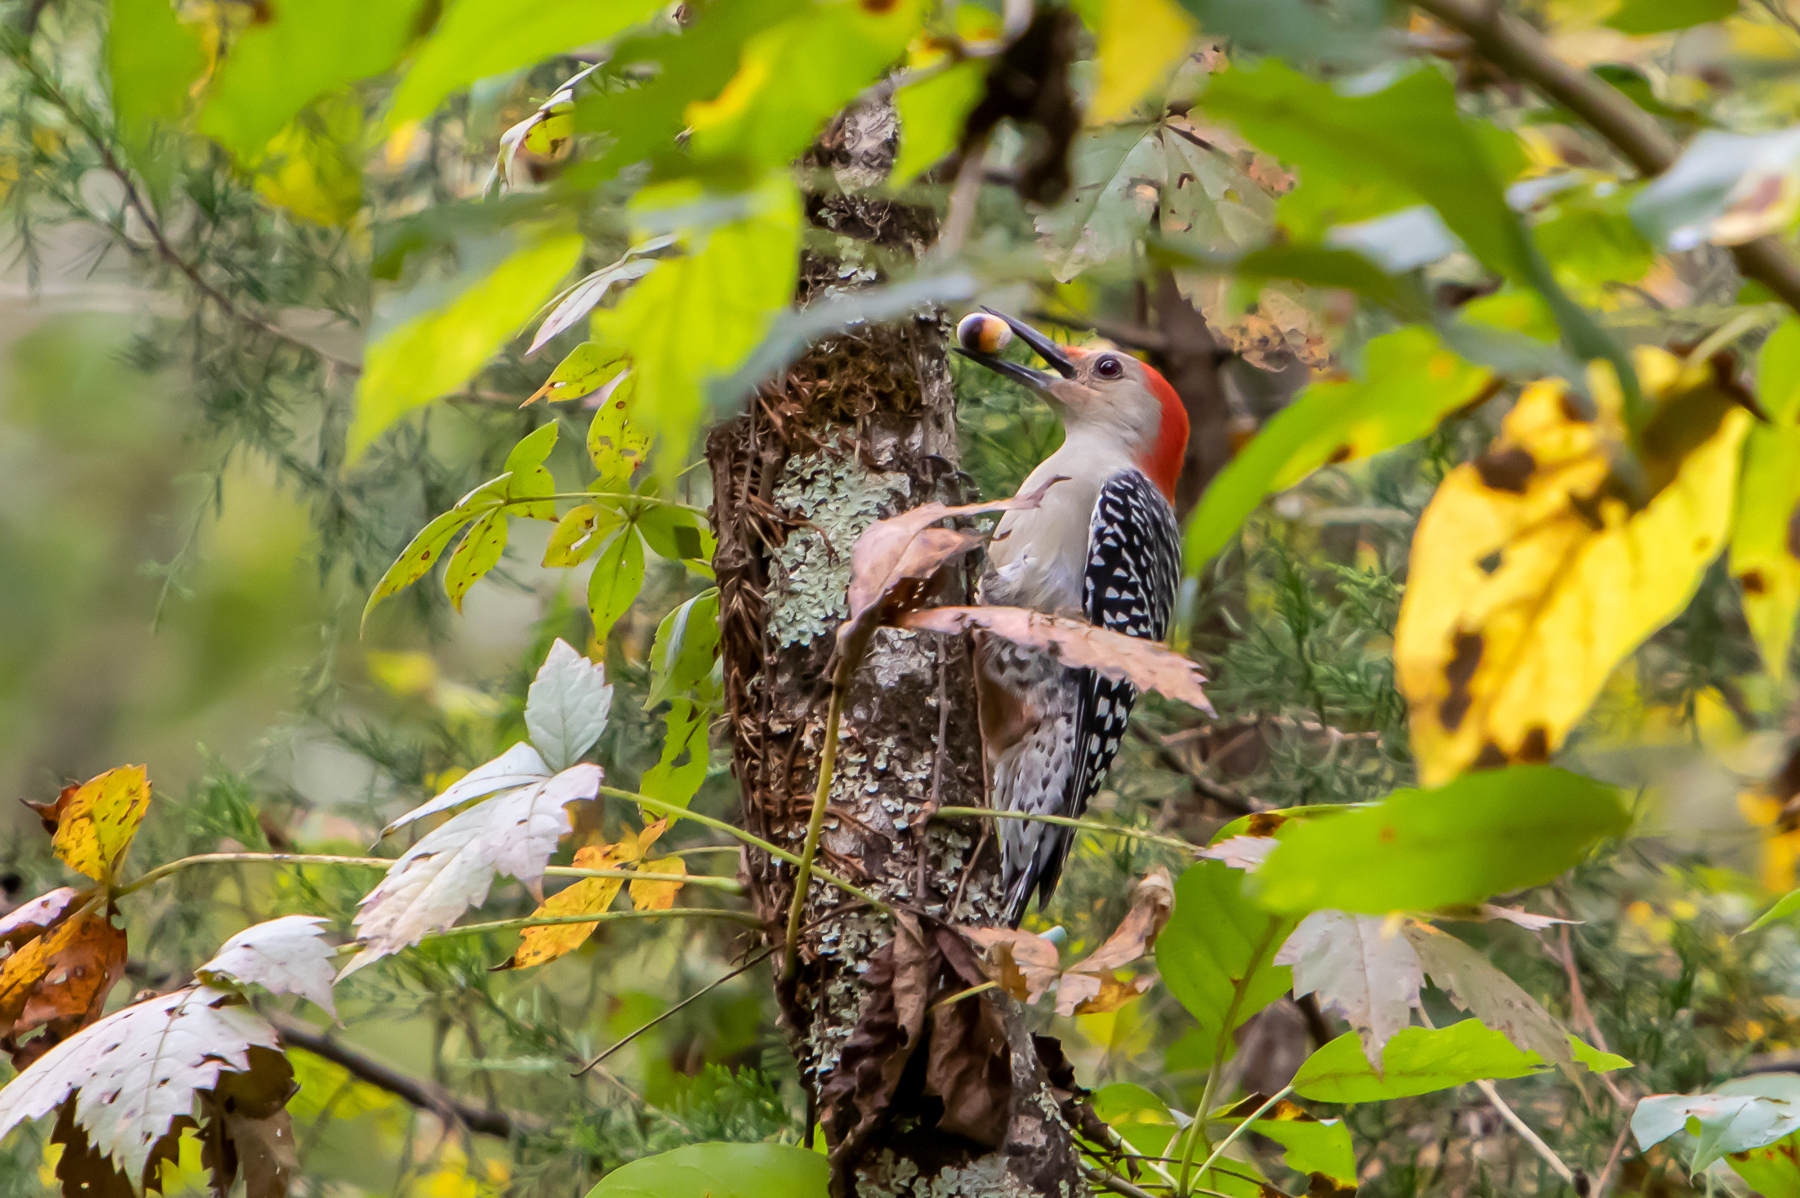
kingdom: Animalia
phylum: Chordata
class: Aves
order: Piciformes
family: Picidae
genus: Melanerpes
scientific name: Melanerpes carolinus
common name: Red-bellied woodpecker
